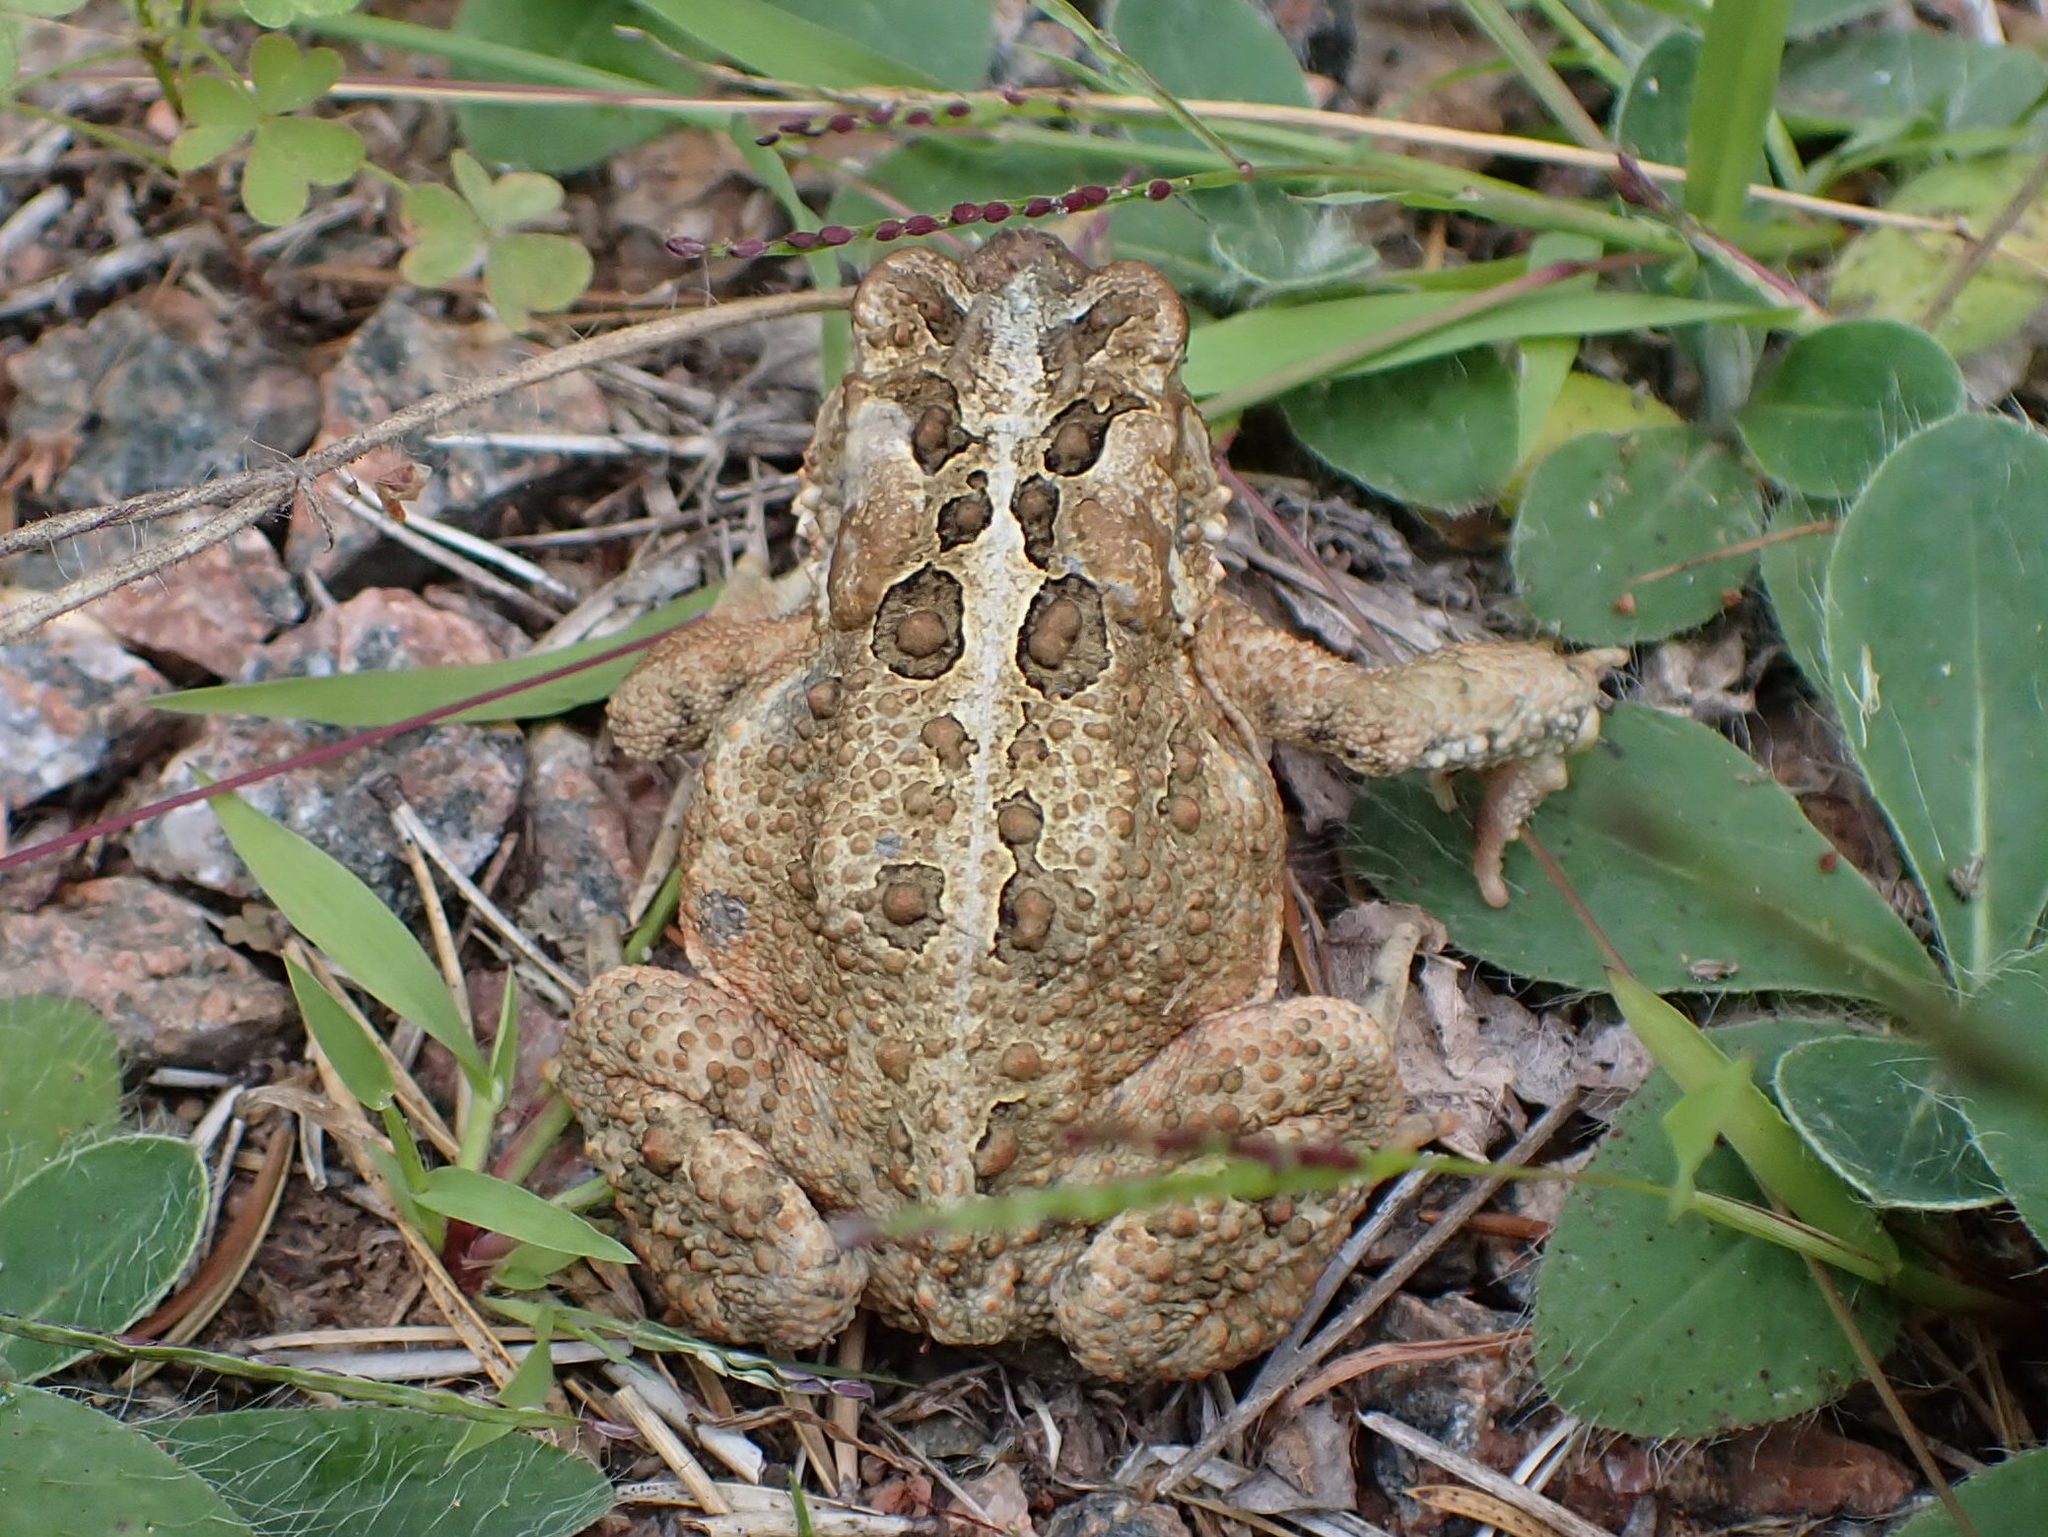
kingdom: Animalia
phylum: Chordata
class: Amphibia
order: Anura
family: Bufonidae
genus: Anaxyrus
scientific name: Anaxyrus americanus
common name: American toad
